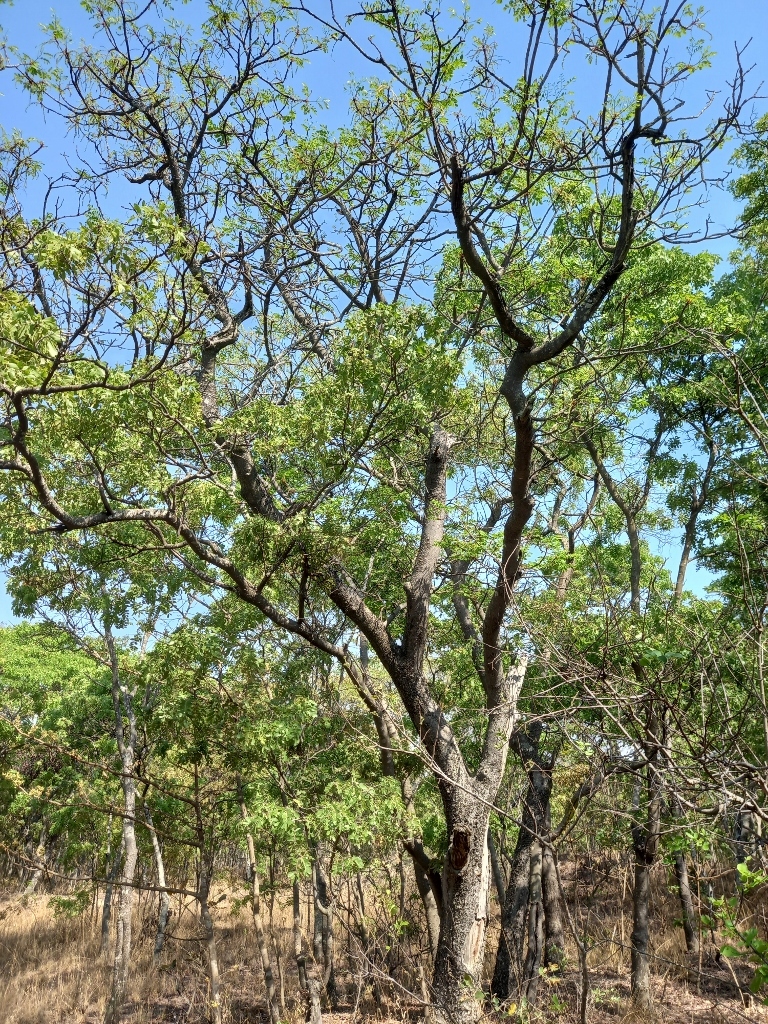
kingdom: Plantae
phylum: Tracheophyta
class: Magnoliopsida
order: Fabales
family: Fabaceae
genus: Burkea
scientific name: Burkea africana
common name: Mkalati tree
